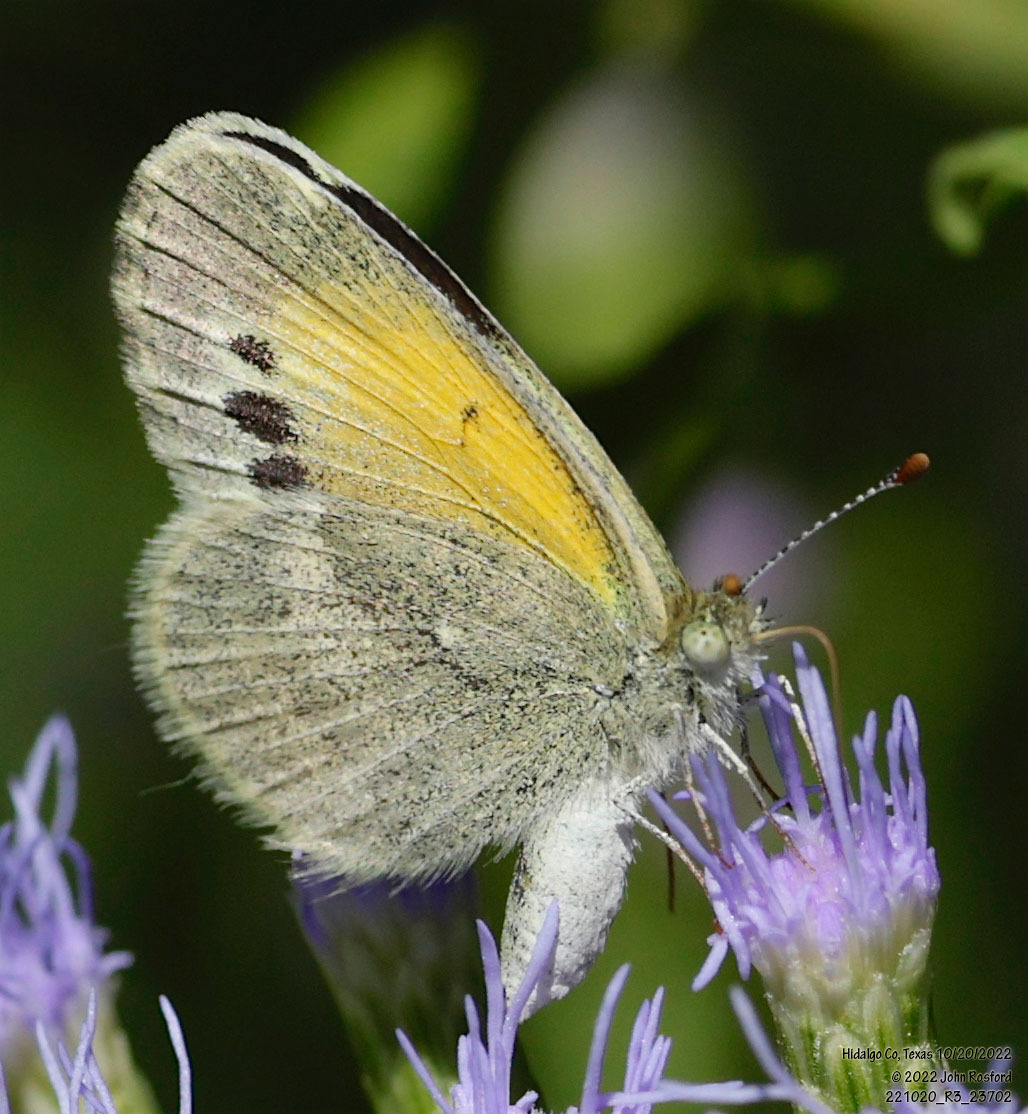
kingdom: Animalia
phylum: Arthropoda
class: Insecta
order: Lepidoptera
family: Pieridae
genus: Nathalis
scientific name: Nathalis iole
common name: Dainty sulphur
